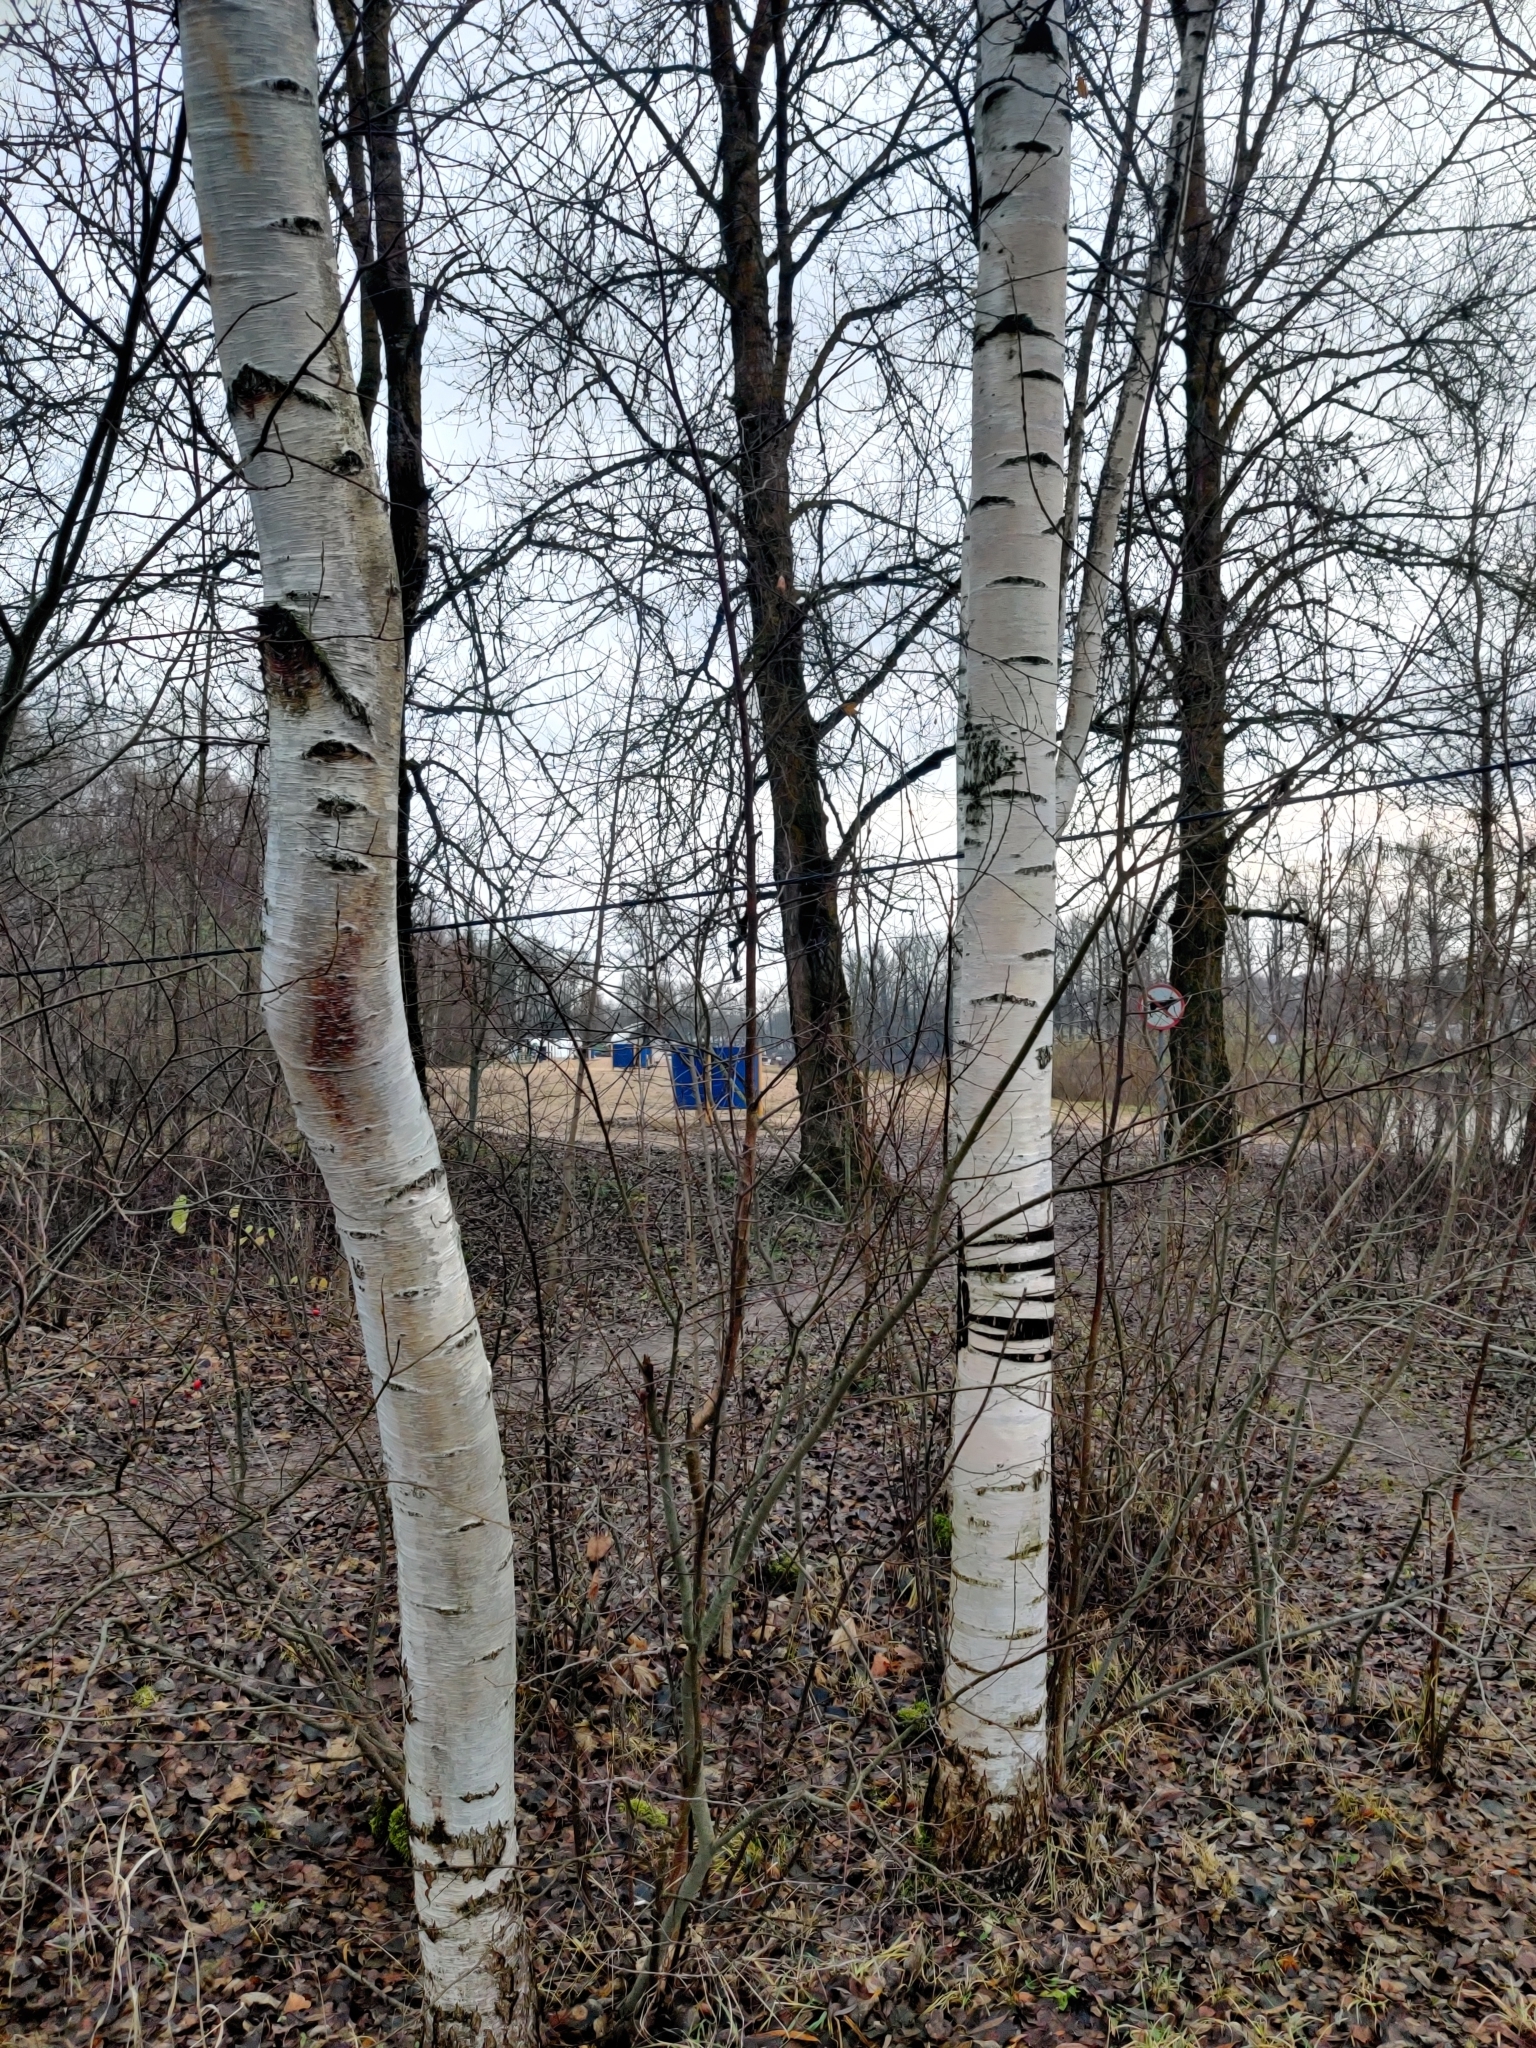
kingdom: Plantae
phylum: Tracheophyta
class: Magnoliopsida
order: Fagales
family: Betulaceae
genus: Betula
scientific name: Betula
